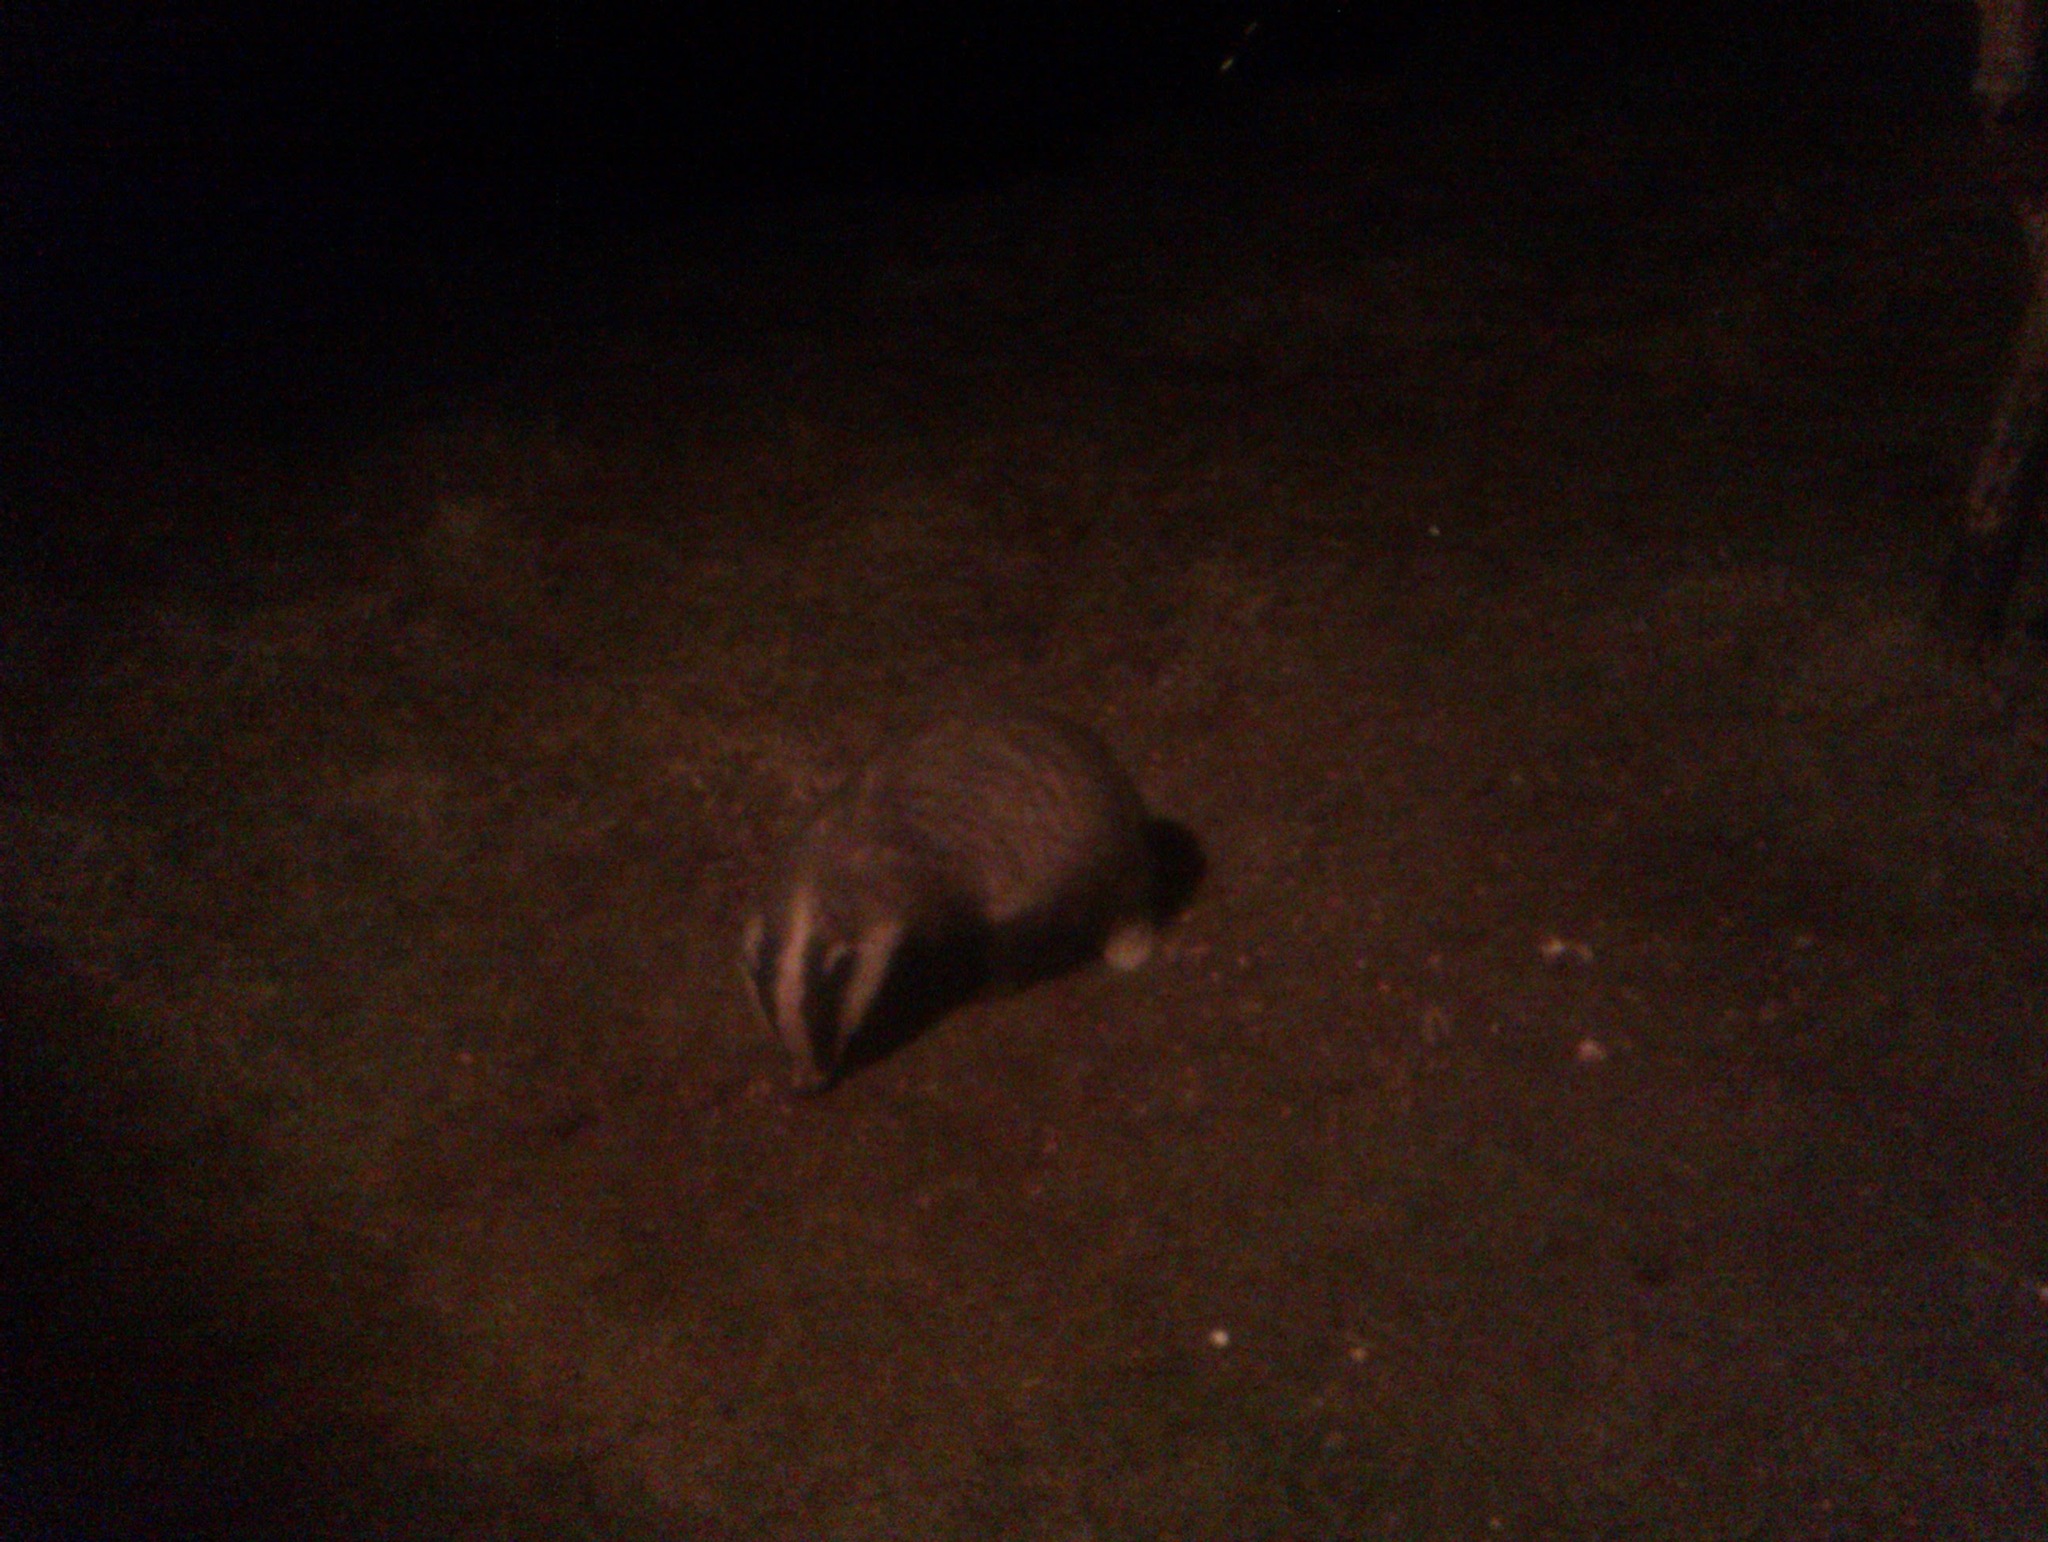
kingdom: Animalia
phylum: Chordata
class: Mammalia
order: Carnivora
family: Mustelidae
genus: Meles
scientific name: Meles meles
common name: Eurasian badger
